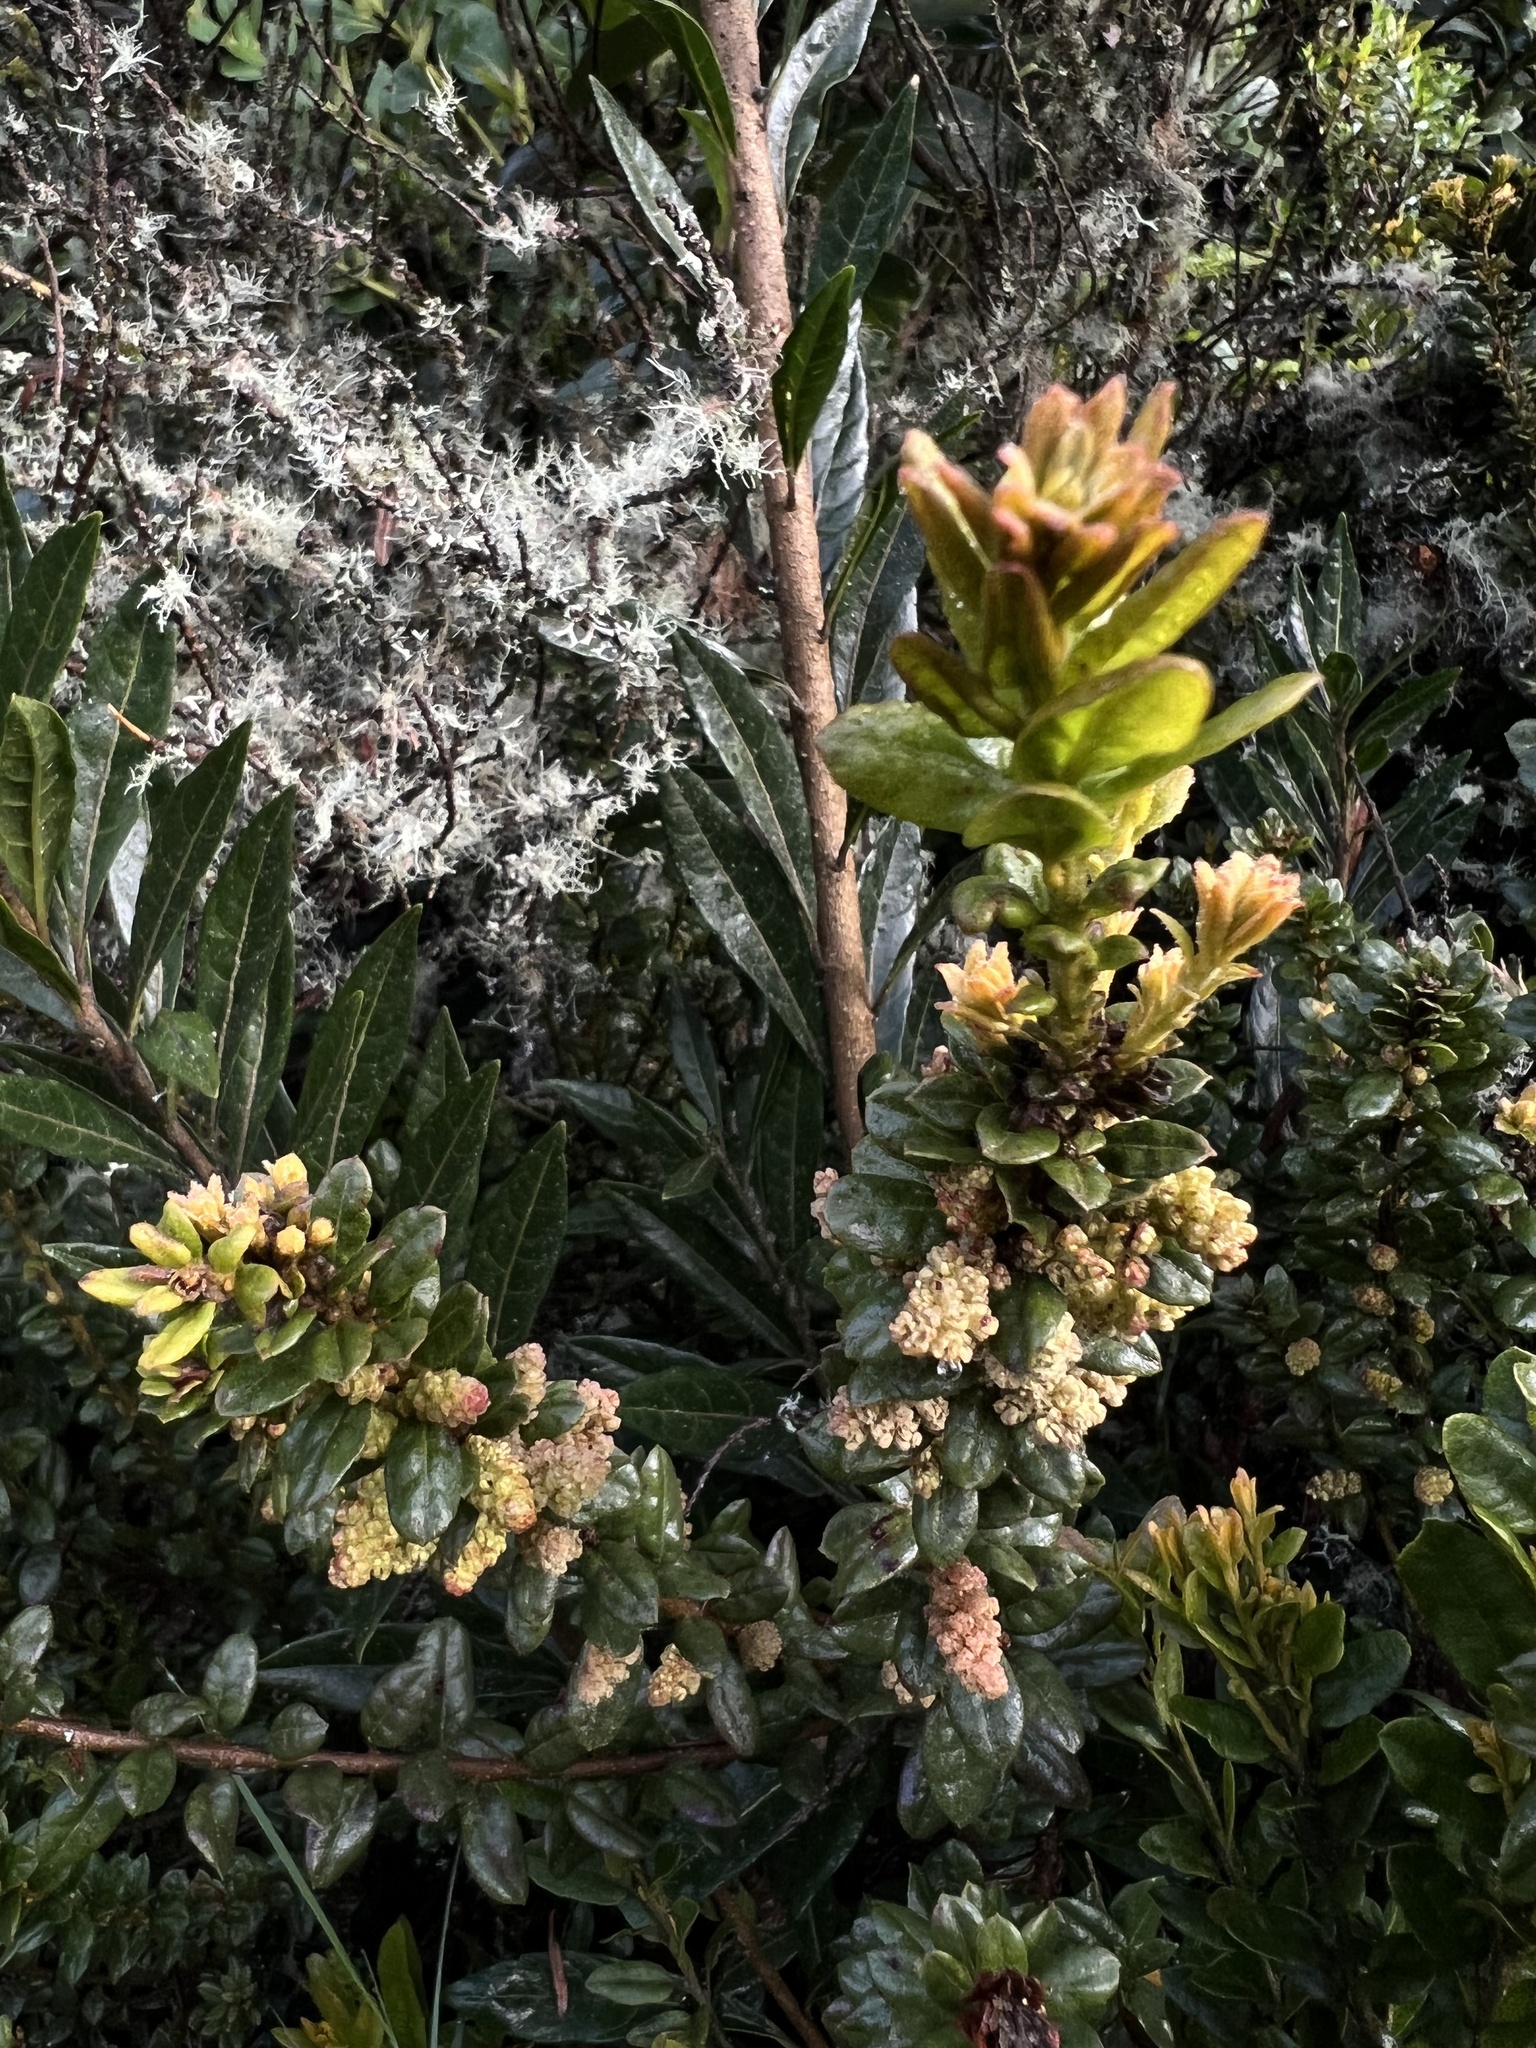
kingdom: Plantae
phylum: Tracheophyta
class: Magnoliopsida
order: Fagales
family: Myricaceae
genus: Morella
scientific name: Morella parvifolia
